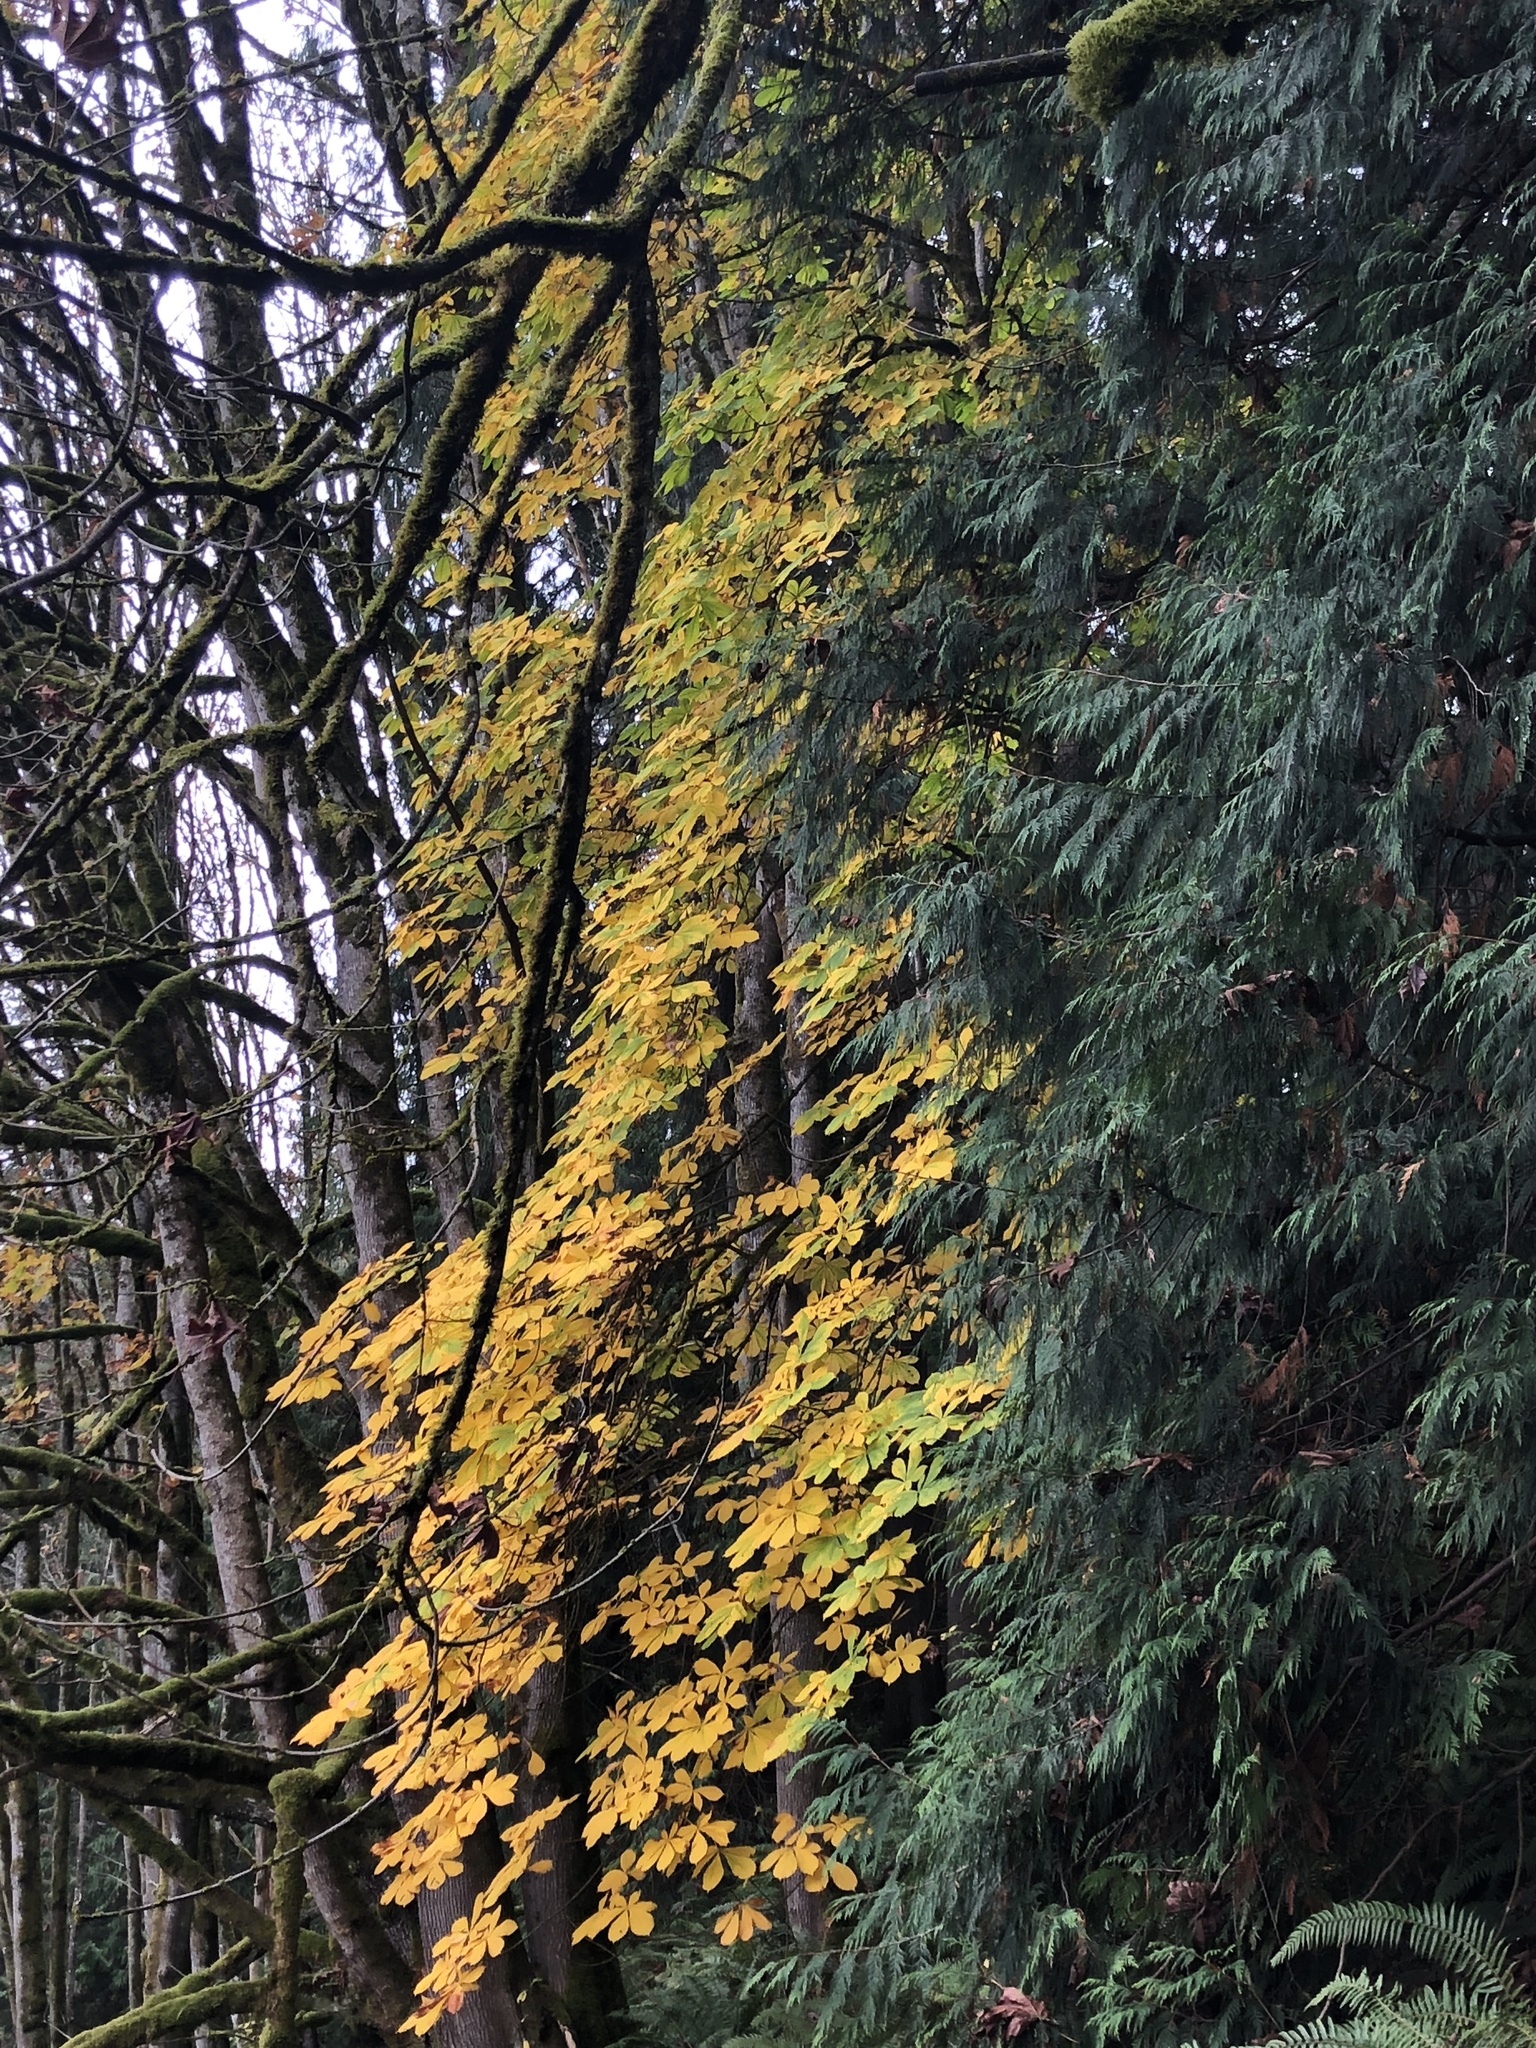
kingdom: Plantae
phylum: Tracheophyta
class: Magnoliopsida
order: Sapindales
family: Sapindaceae
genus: Aesculus
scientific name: Aesculus hippocastanum
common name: Horse-chestnut
